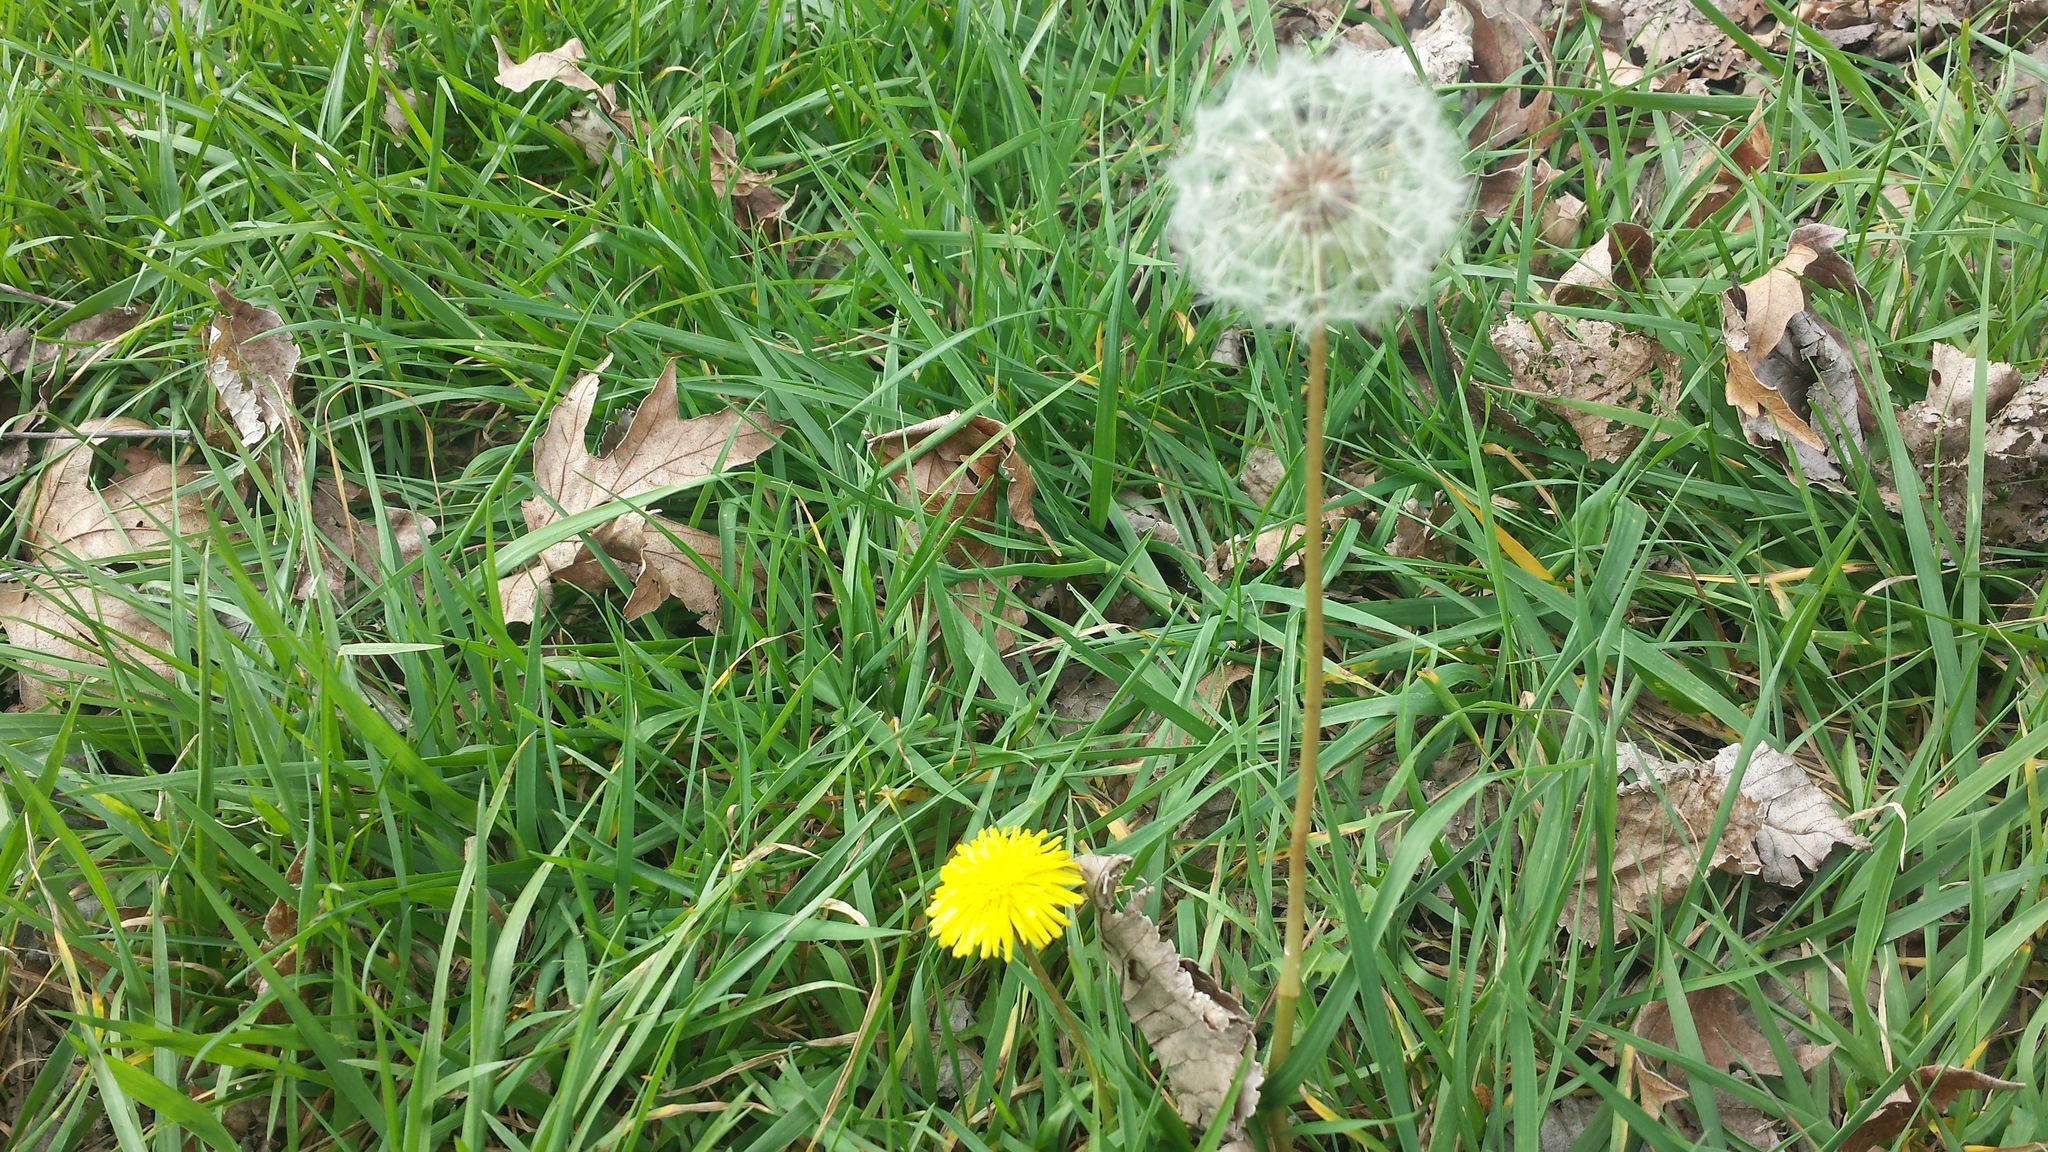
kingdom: Plantae
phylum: Tracheophyta
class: Magnoliopsida
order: Asterales
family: Asteraceae
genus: Taraxacum
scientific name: Taraxacum erythrospermum
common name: Rock dandelion
